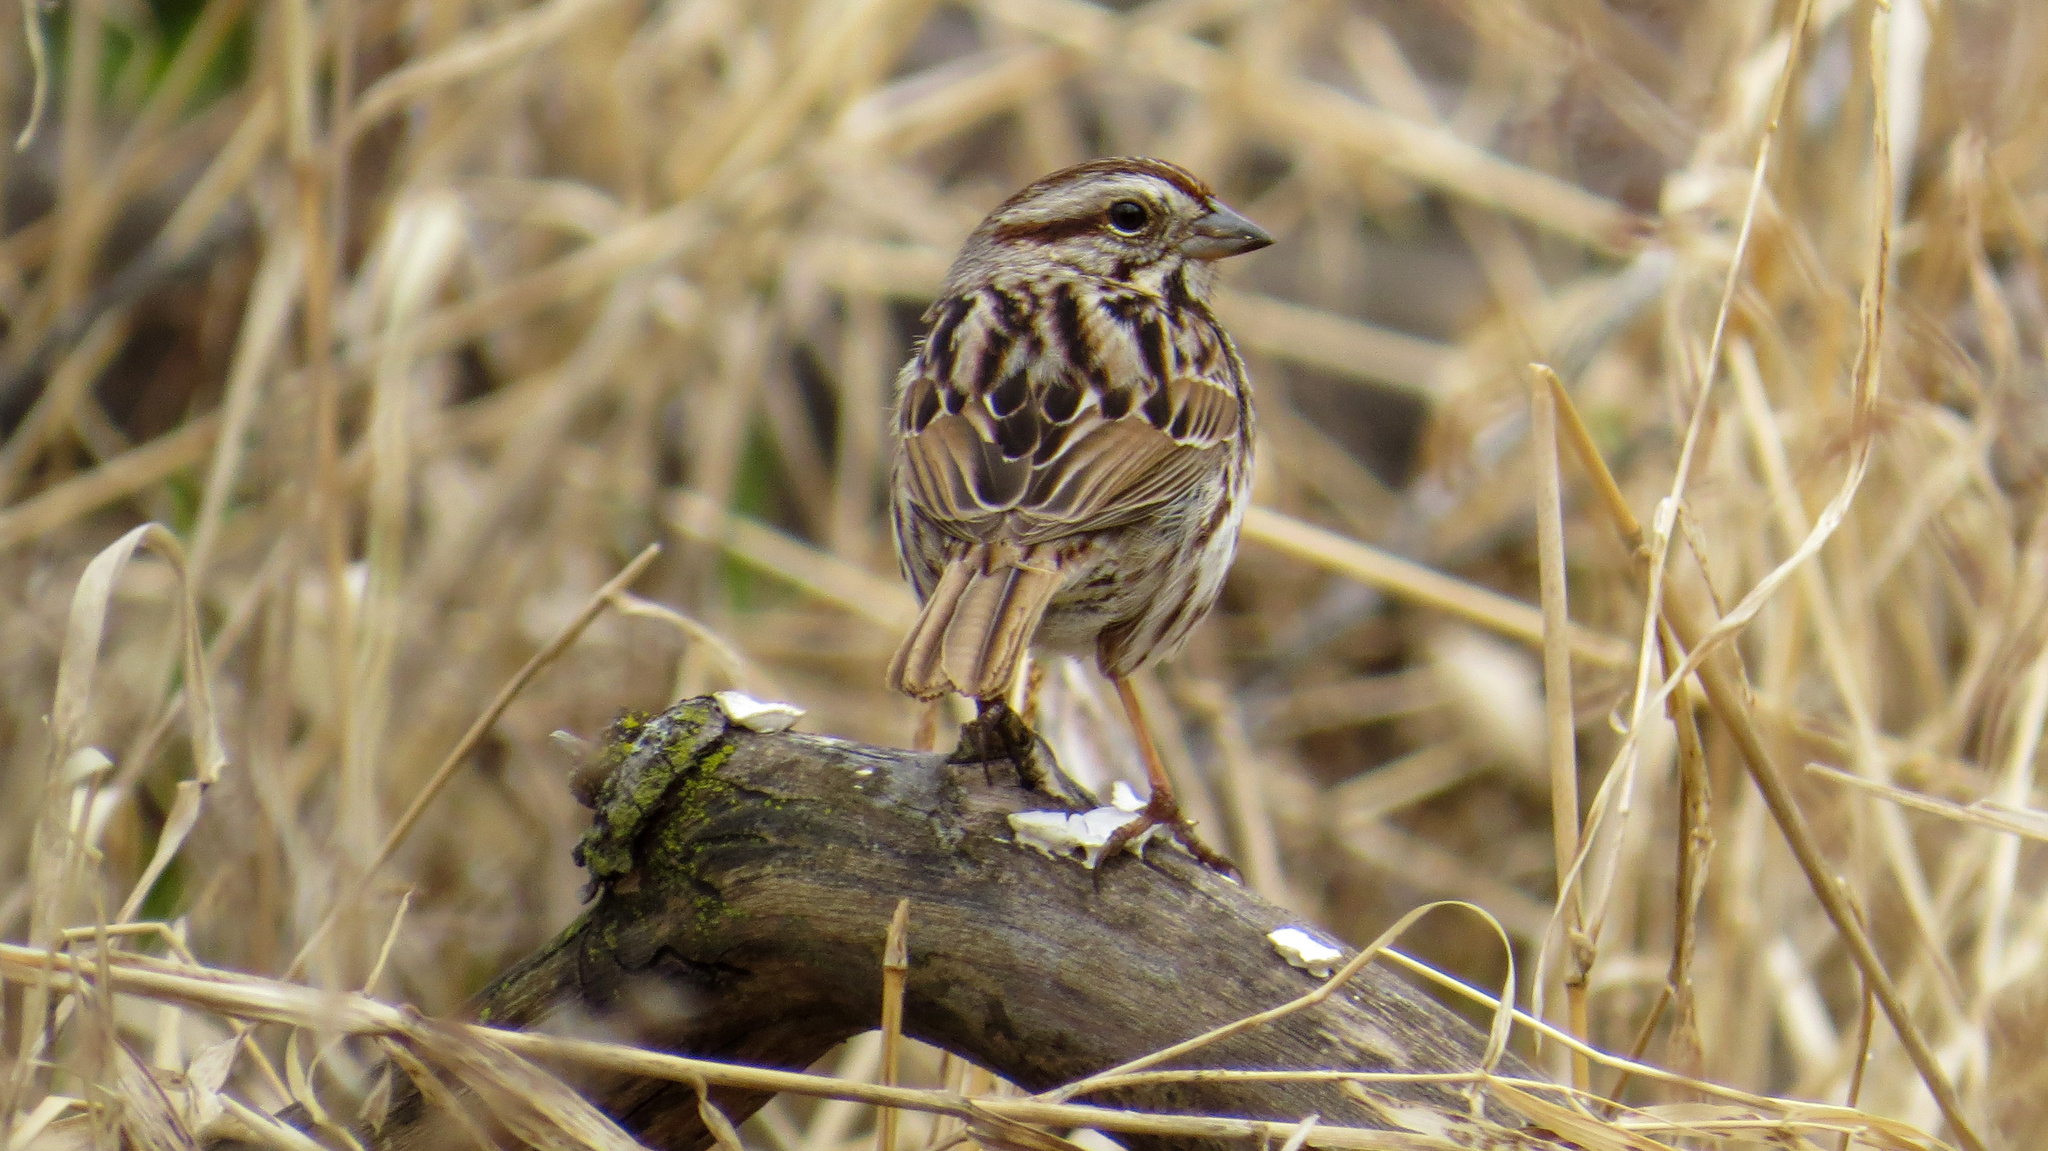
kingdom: Animalia
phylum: Chordata
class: Aves
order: Passeriformes
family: Passerellidae
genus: Melospiza
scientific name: Melospiza melodia
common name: Song sparrow
